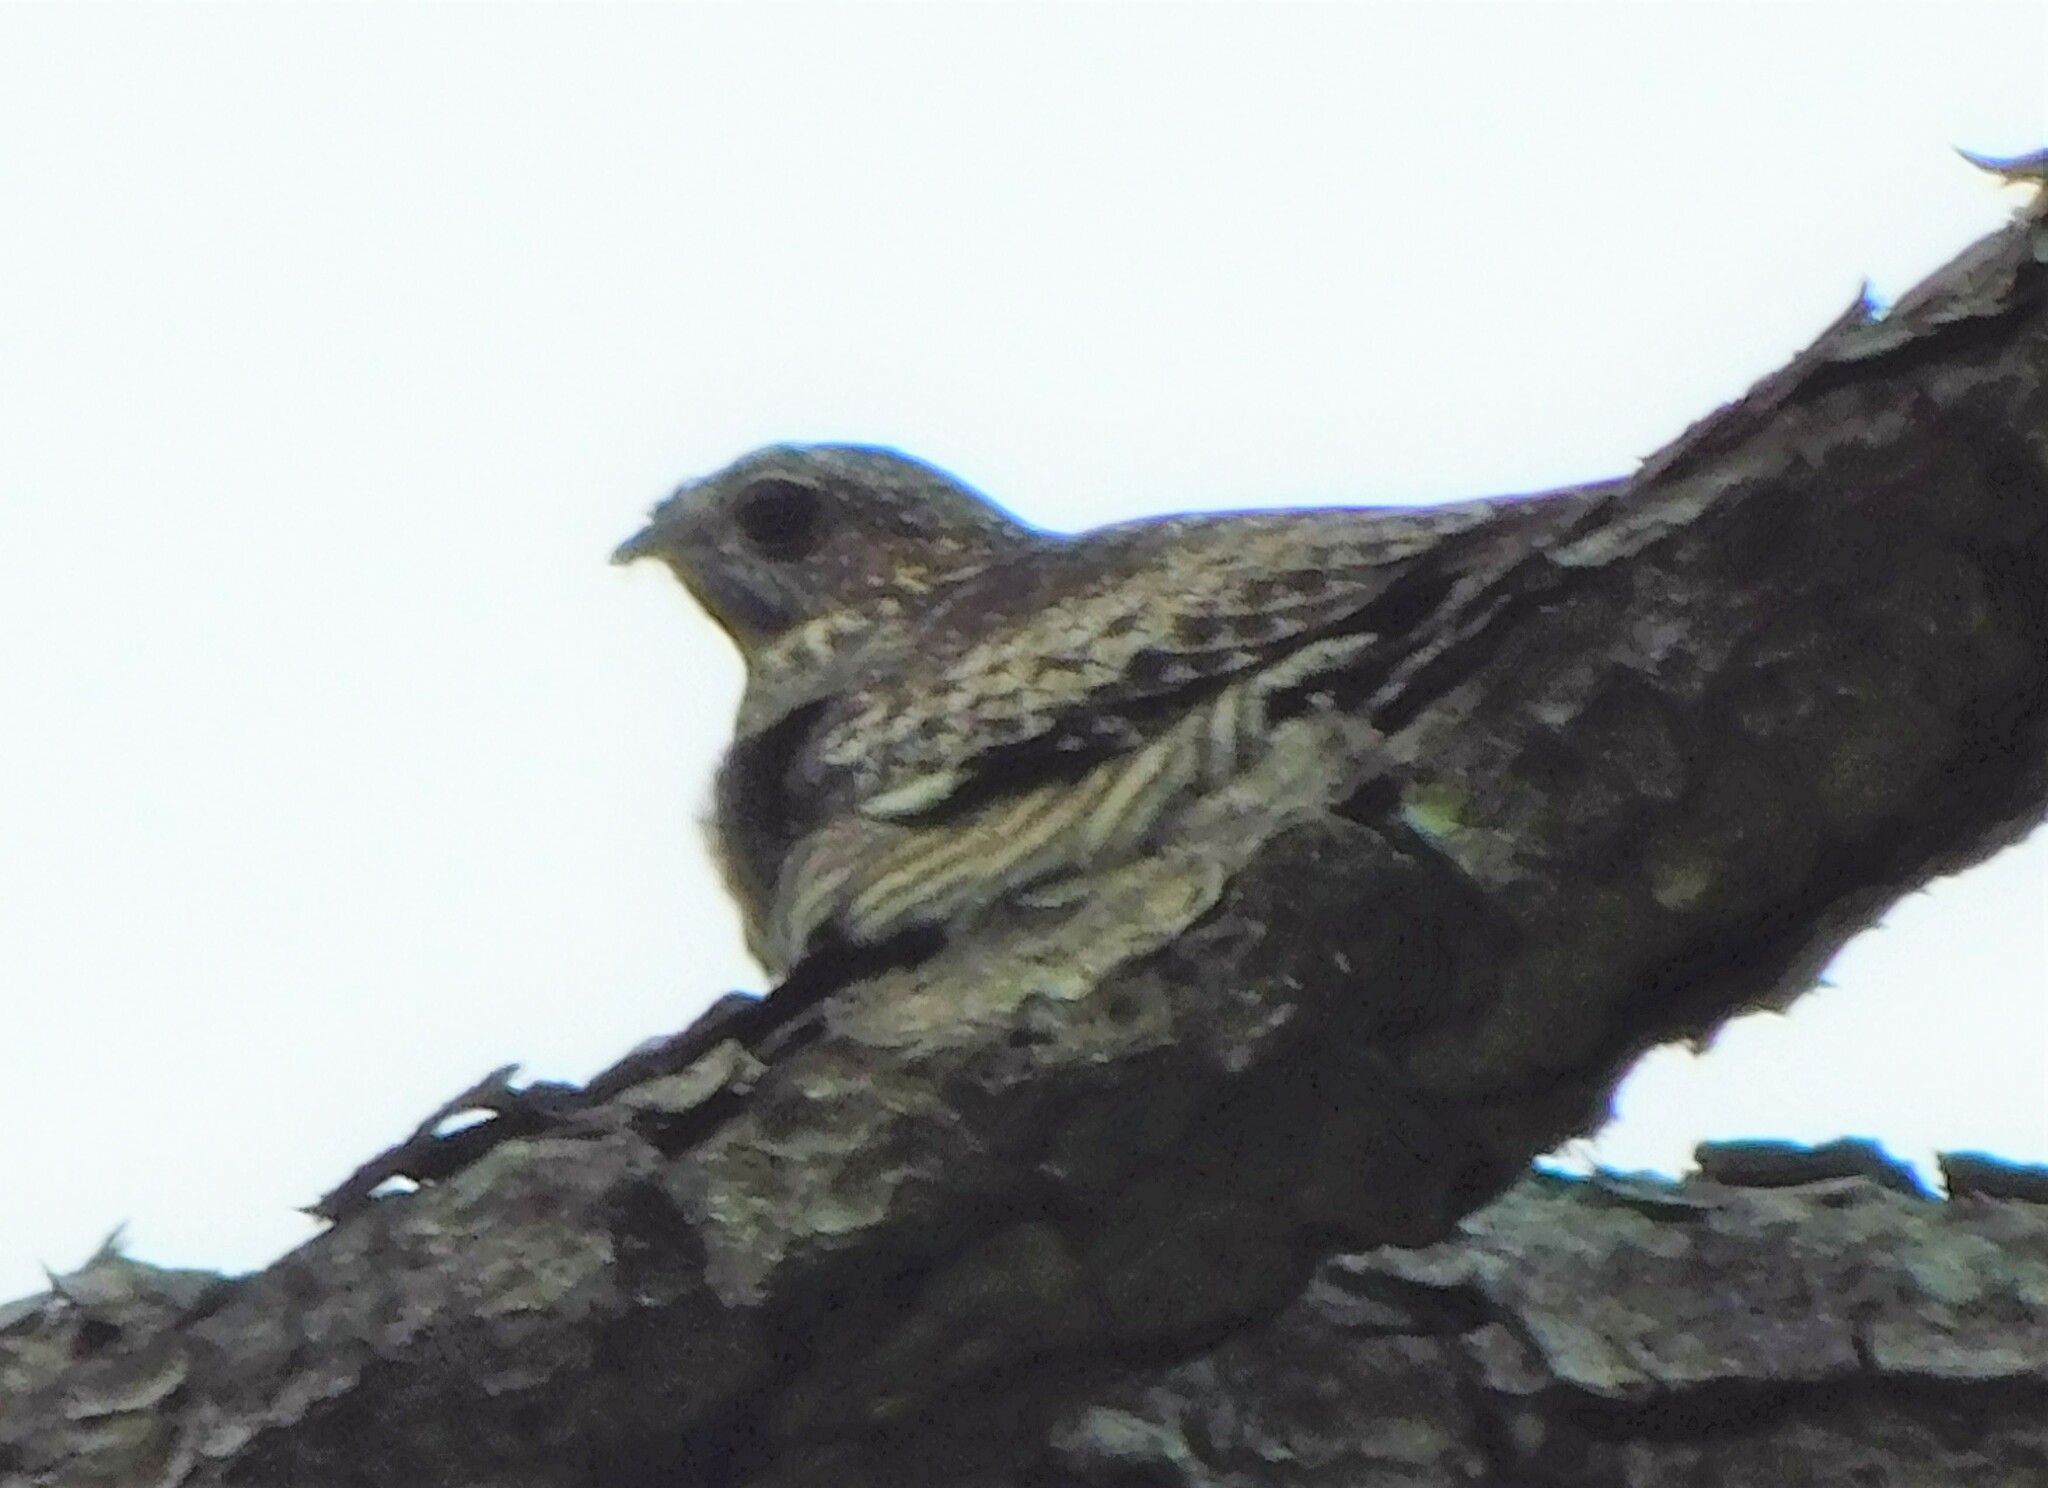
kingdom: Animalia
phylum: Chordata
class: Aves
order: Caprimulgiformes
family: Caprimulgidae
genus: Chordeiles
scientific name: Chordeiles minor
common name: Common nighthawk
